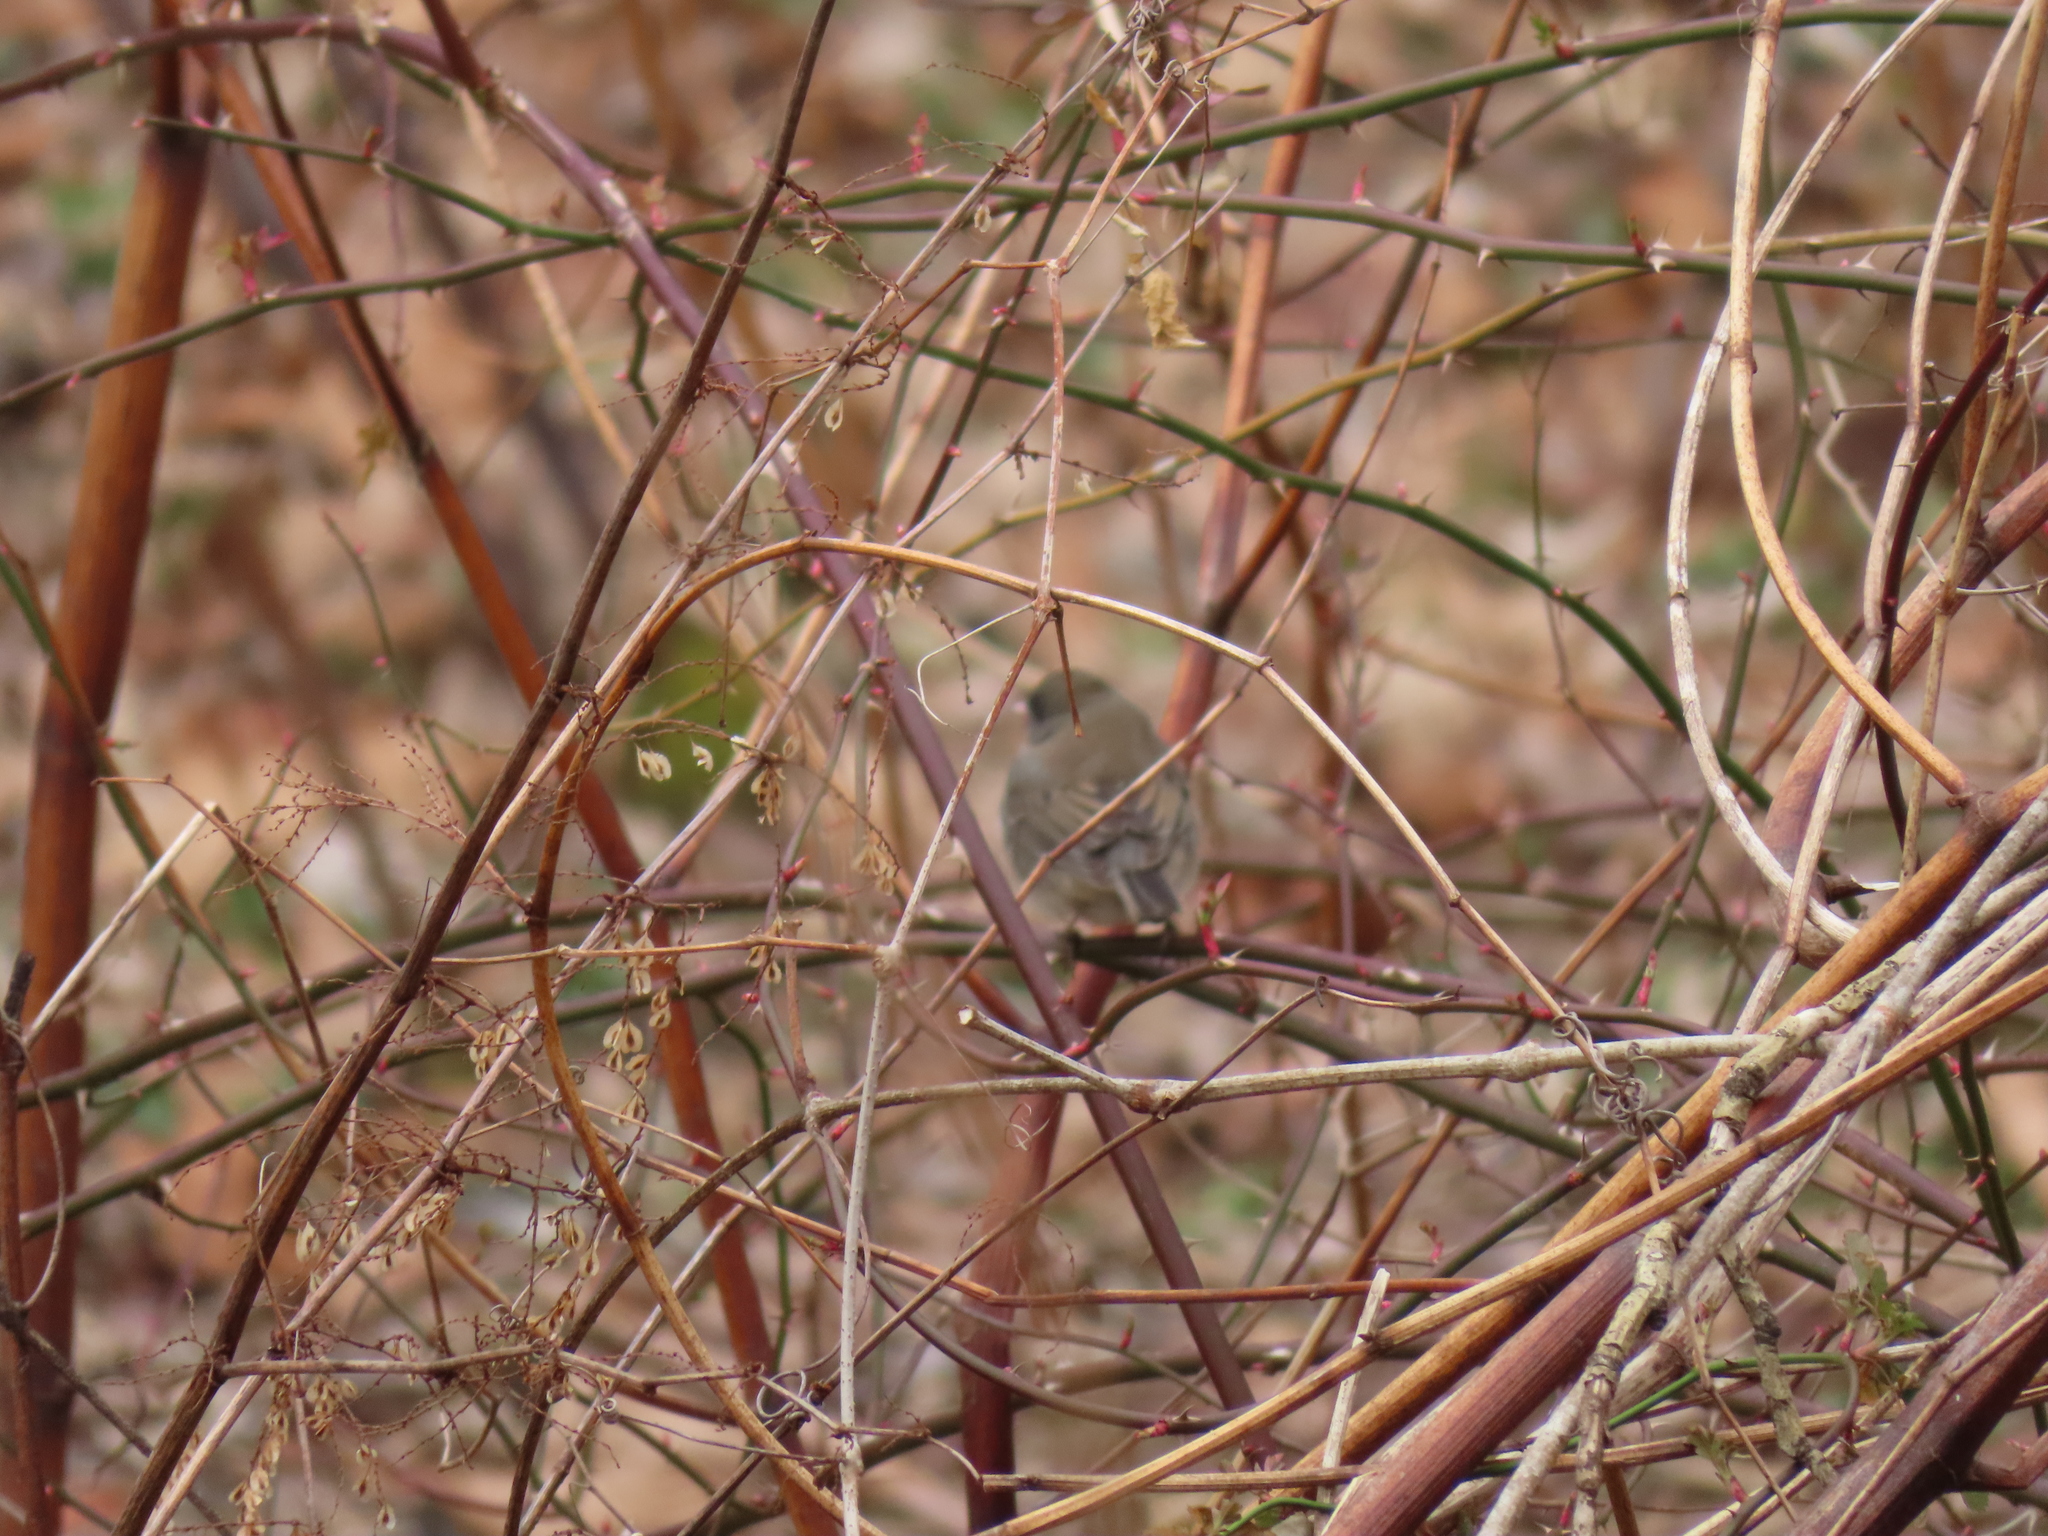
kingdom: Animalia
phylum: Chordata
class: Aves
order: Passeriformes
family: Passerellidae
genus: Junco
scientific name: Junco hyemalis
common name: Dark-eyed junco
